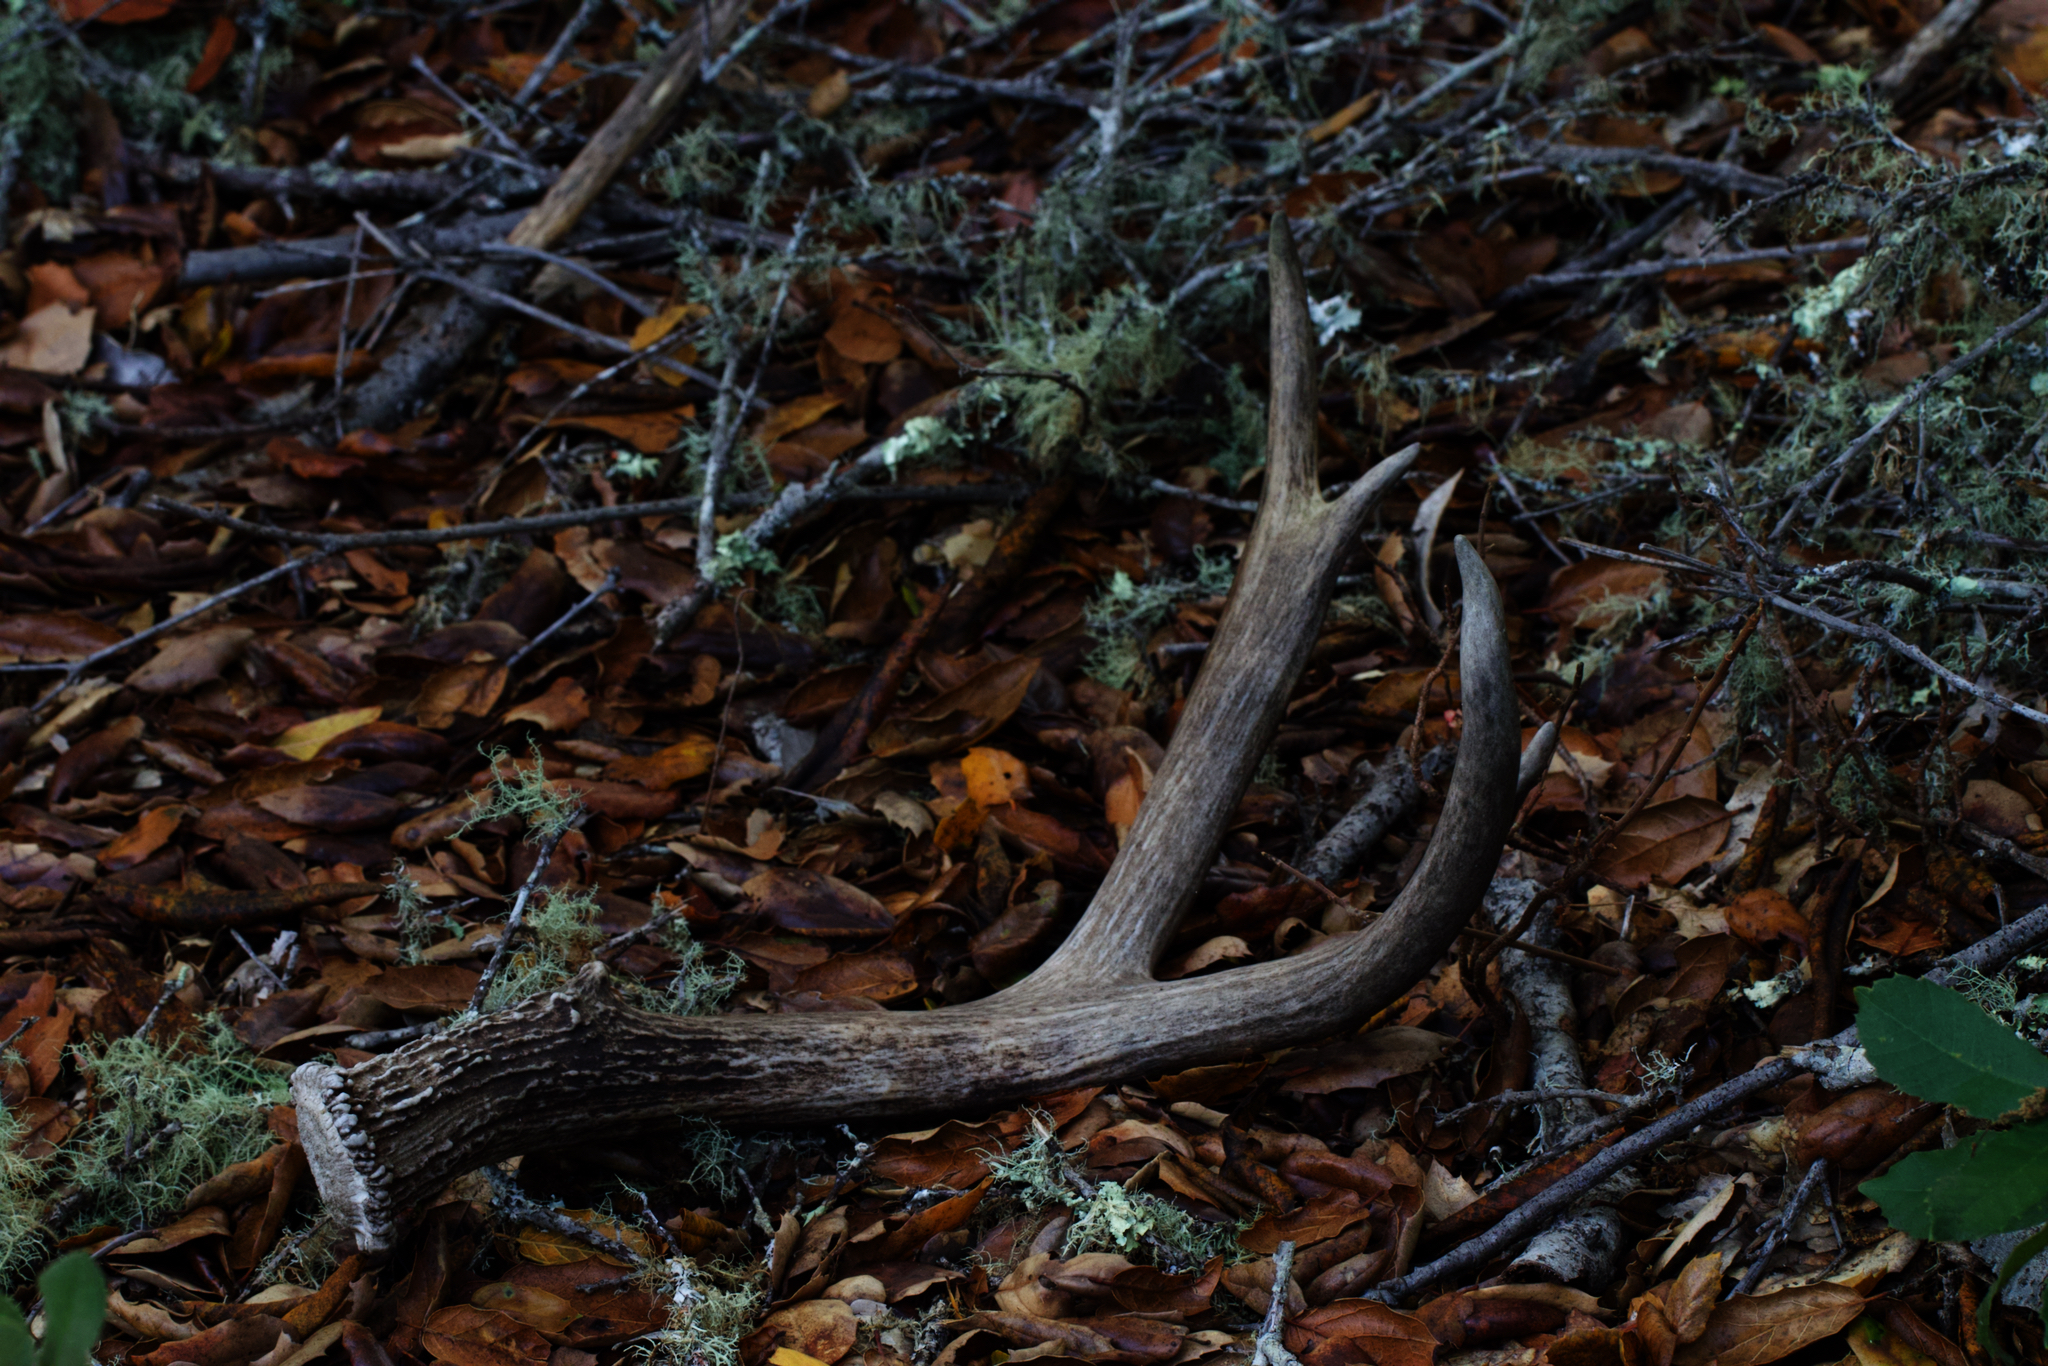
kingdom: Animalia
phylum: Chordata
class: Mammalia
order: Artiodactyla
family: Cervidae
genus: Odocoileus
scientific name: Odocoileus hemionus
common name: Mule deer
